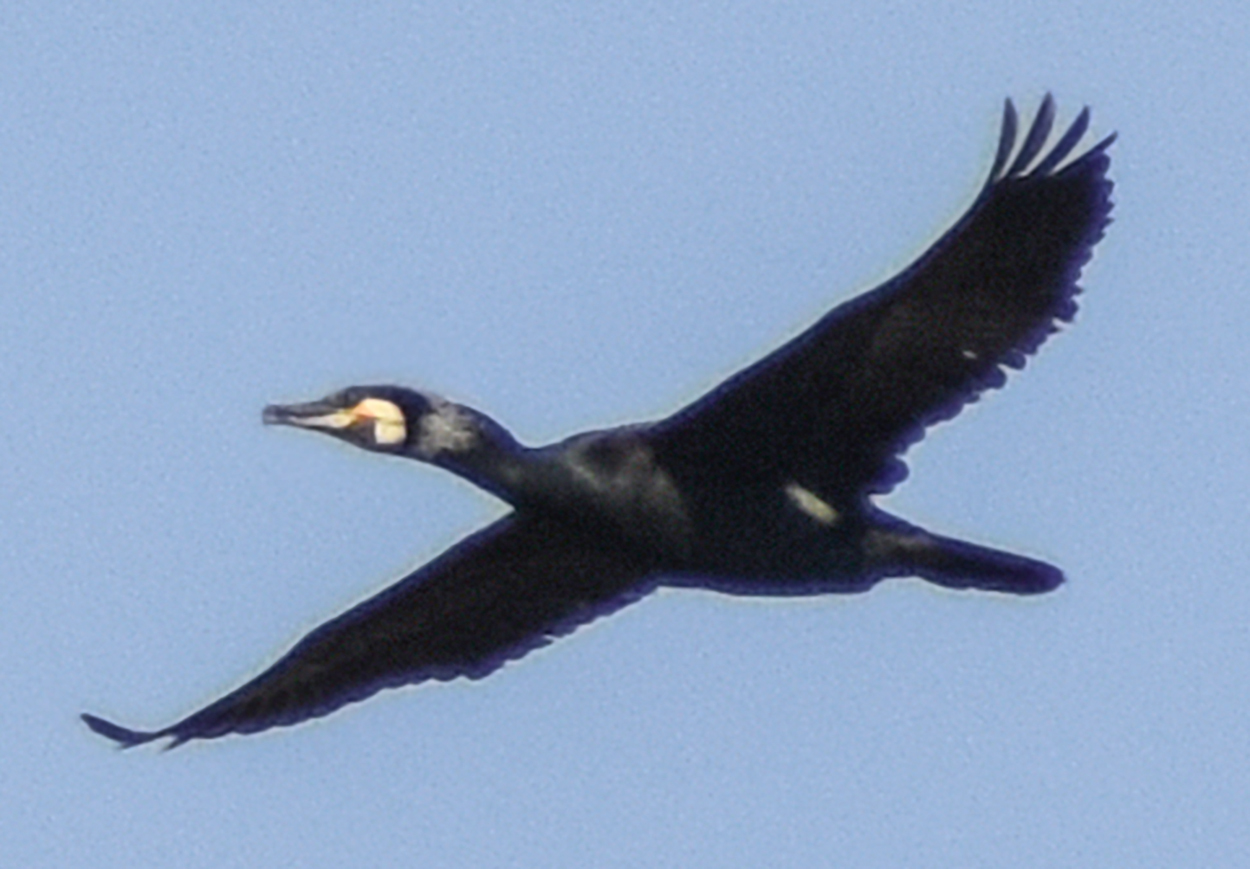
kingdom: Animalia
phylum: Chordata
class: Aves
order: Suliformes
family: Phalacrocoracidae
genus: Phalacrocorax
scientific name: Phalacrocorax carbo
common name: Great cormorant
